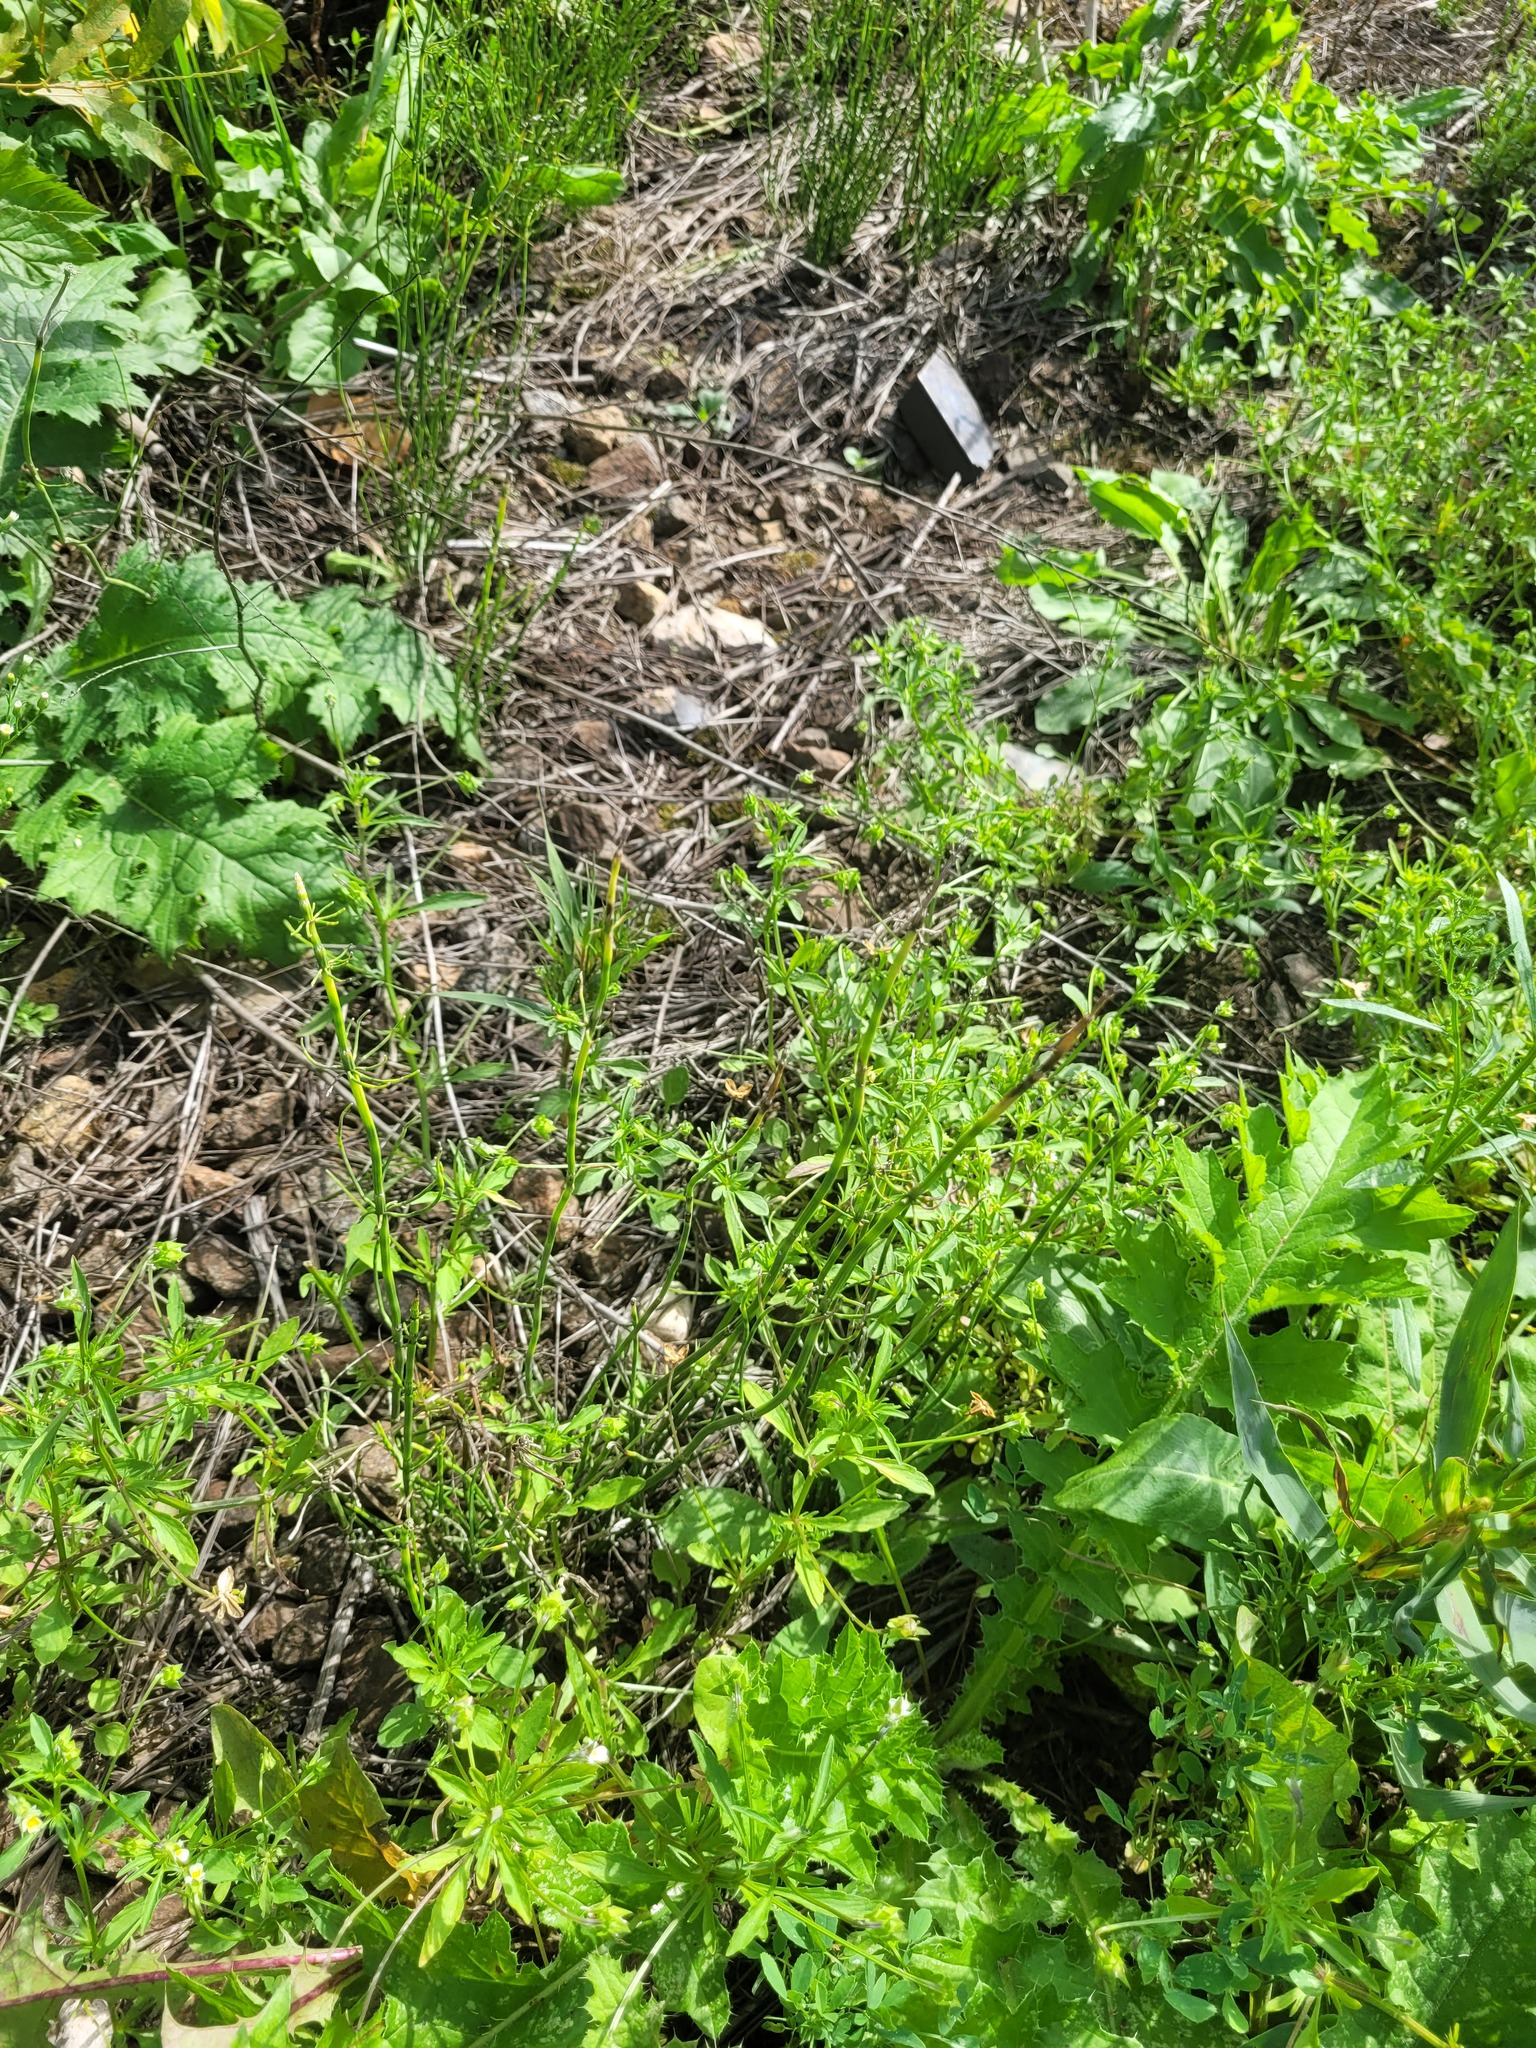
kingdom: Plantae
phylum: Tracheophyta
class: Polypodiopsida
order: Equisetales
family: Equisetaceae
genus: Equisetum
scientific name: Equisetum palustre
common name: Marsh horsetail
